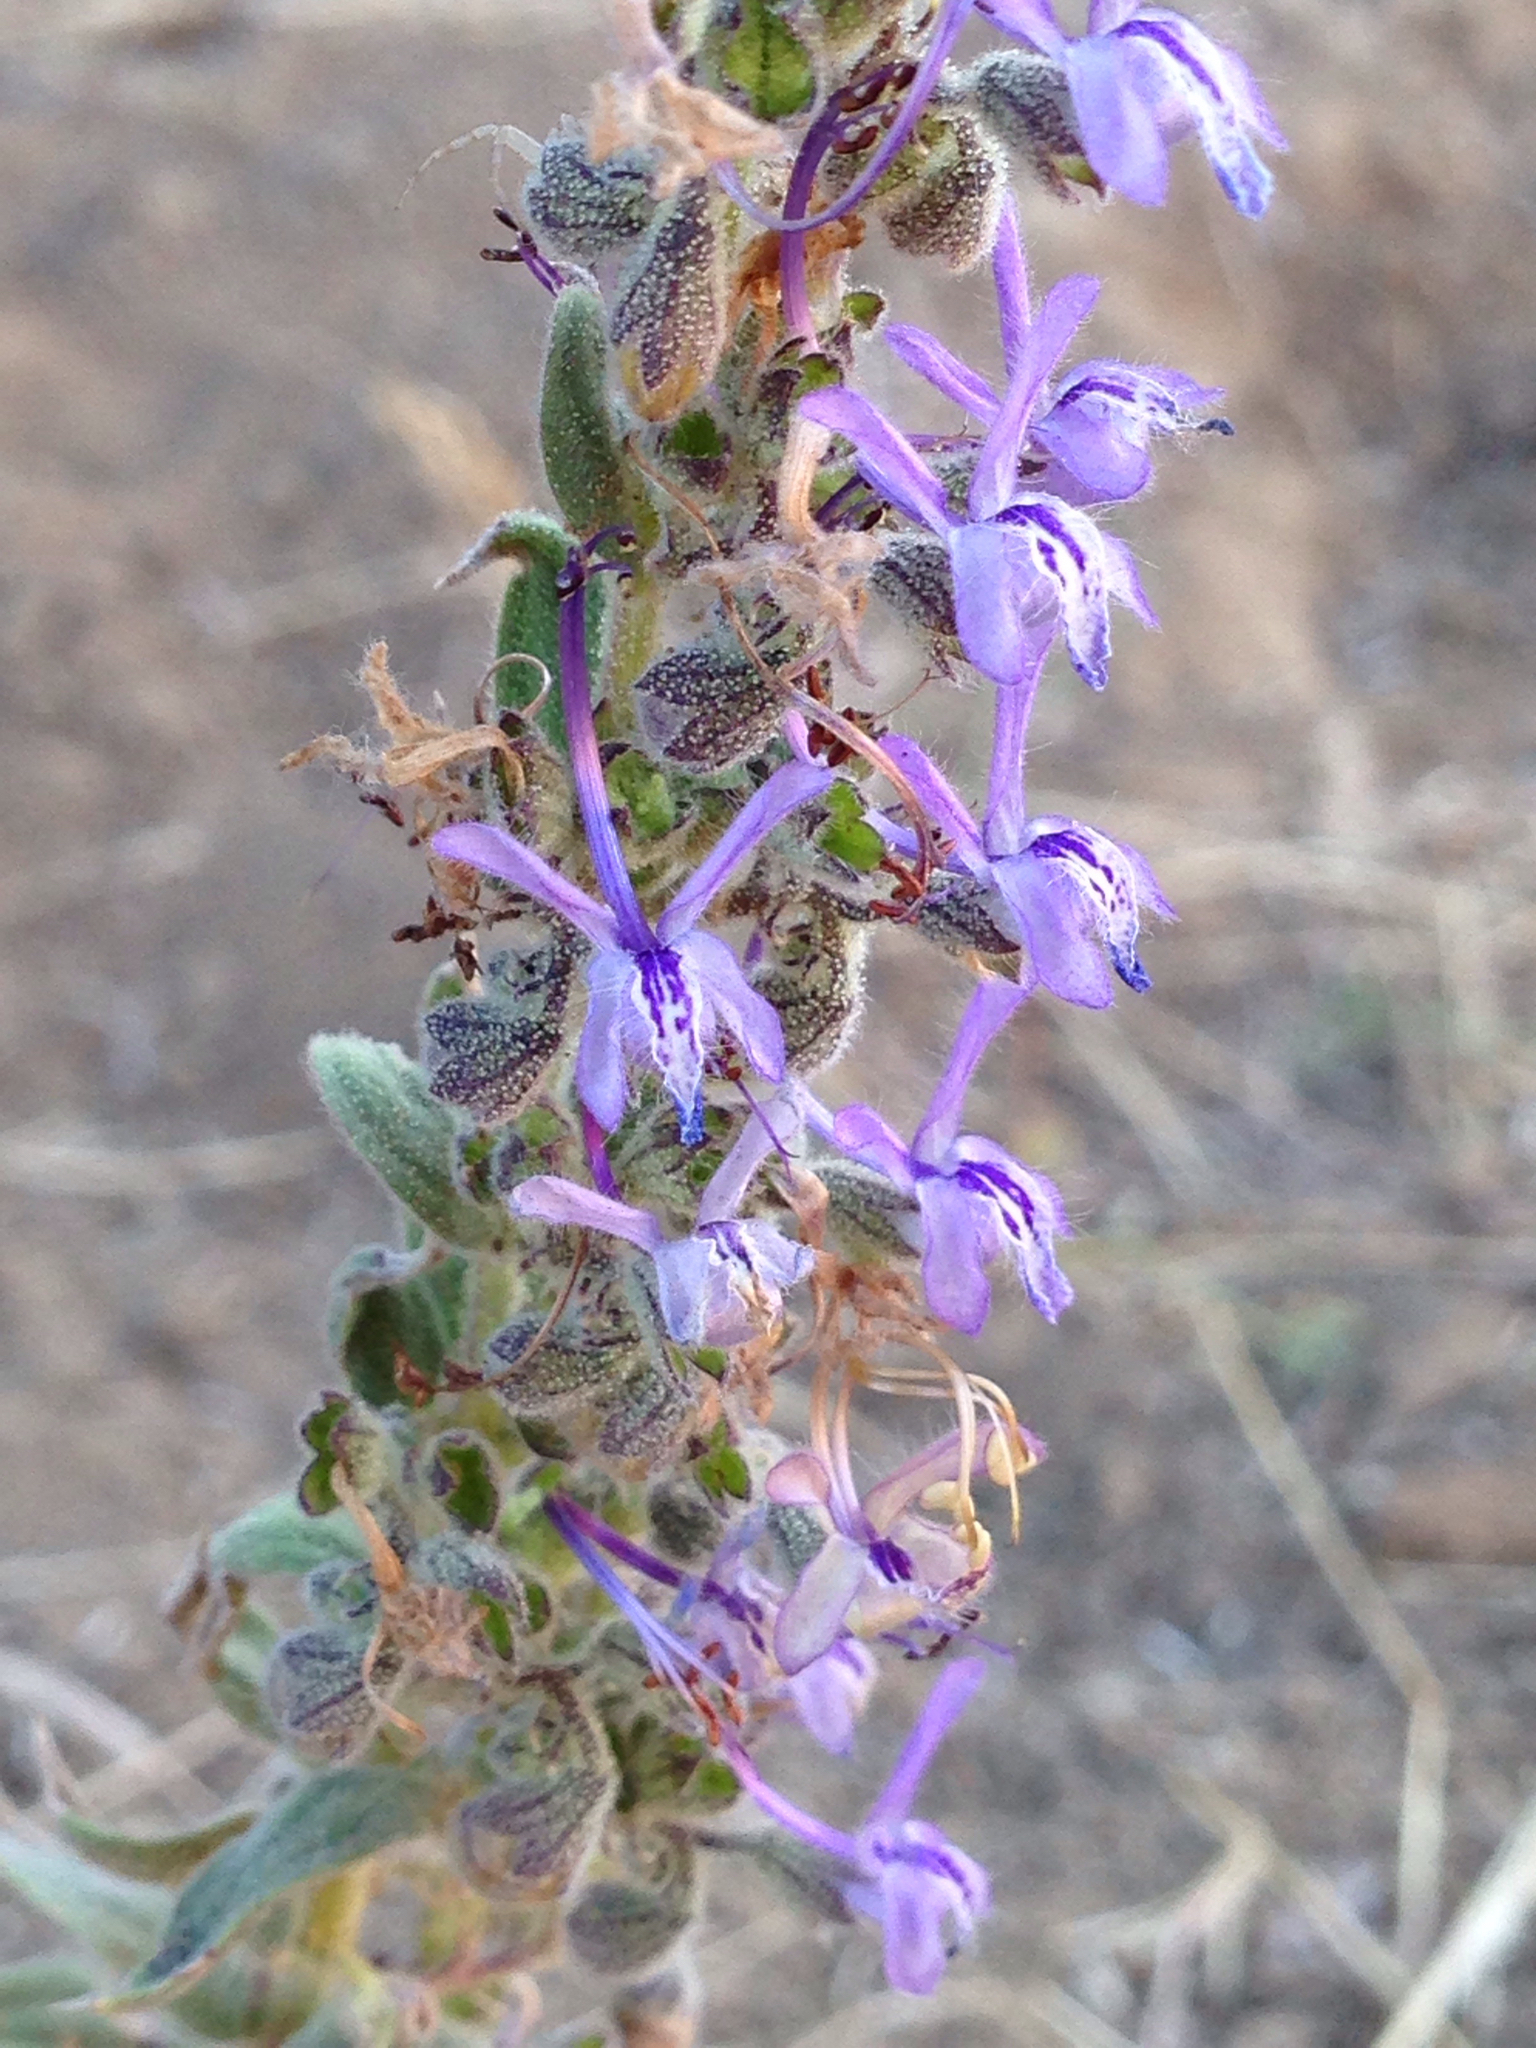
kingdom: Plantae
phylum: Tracheophyta
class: Magnoliopsida
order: Lamiales
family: Lamiaceae
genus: Trichostema
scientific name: Trichostema lanceolatum
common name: Vinegar-weed
